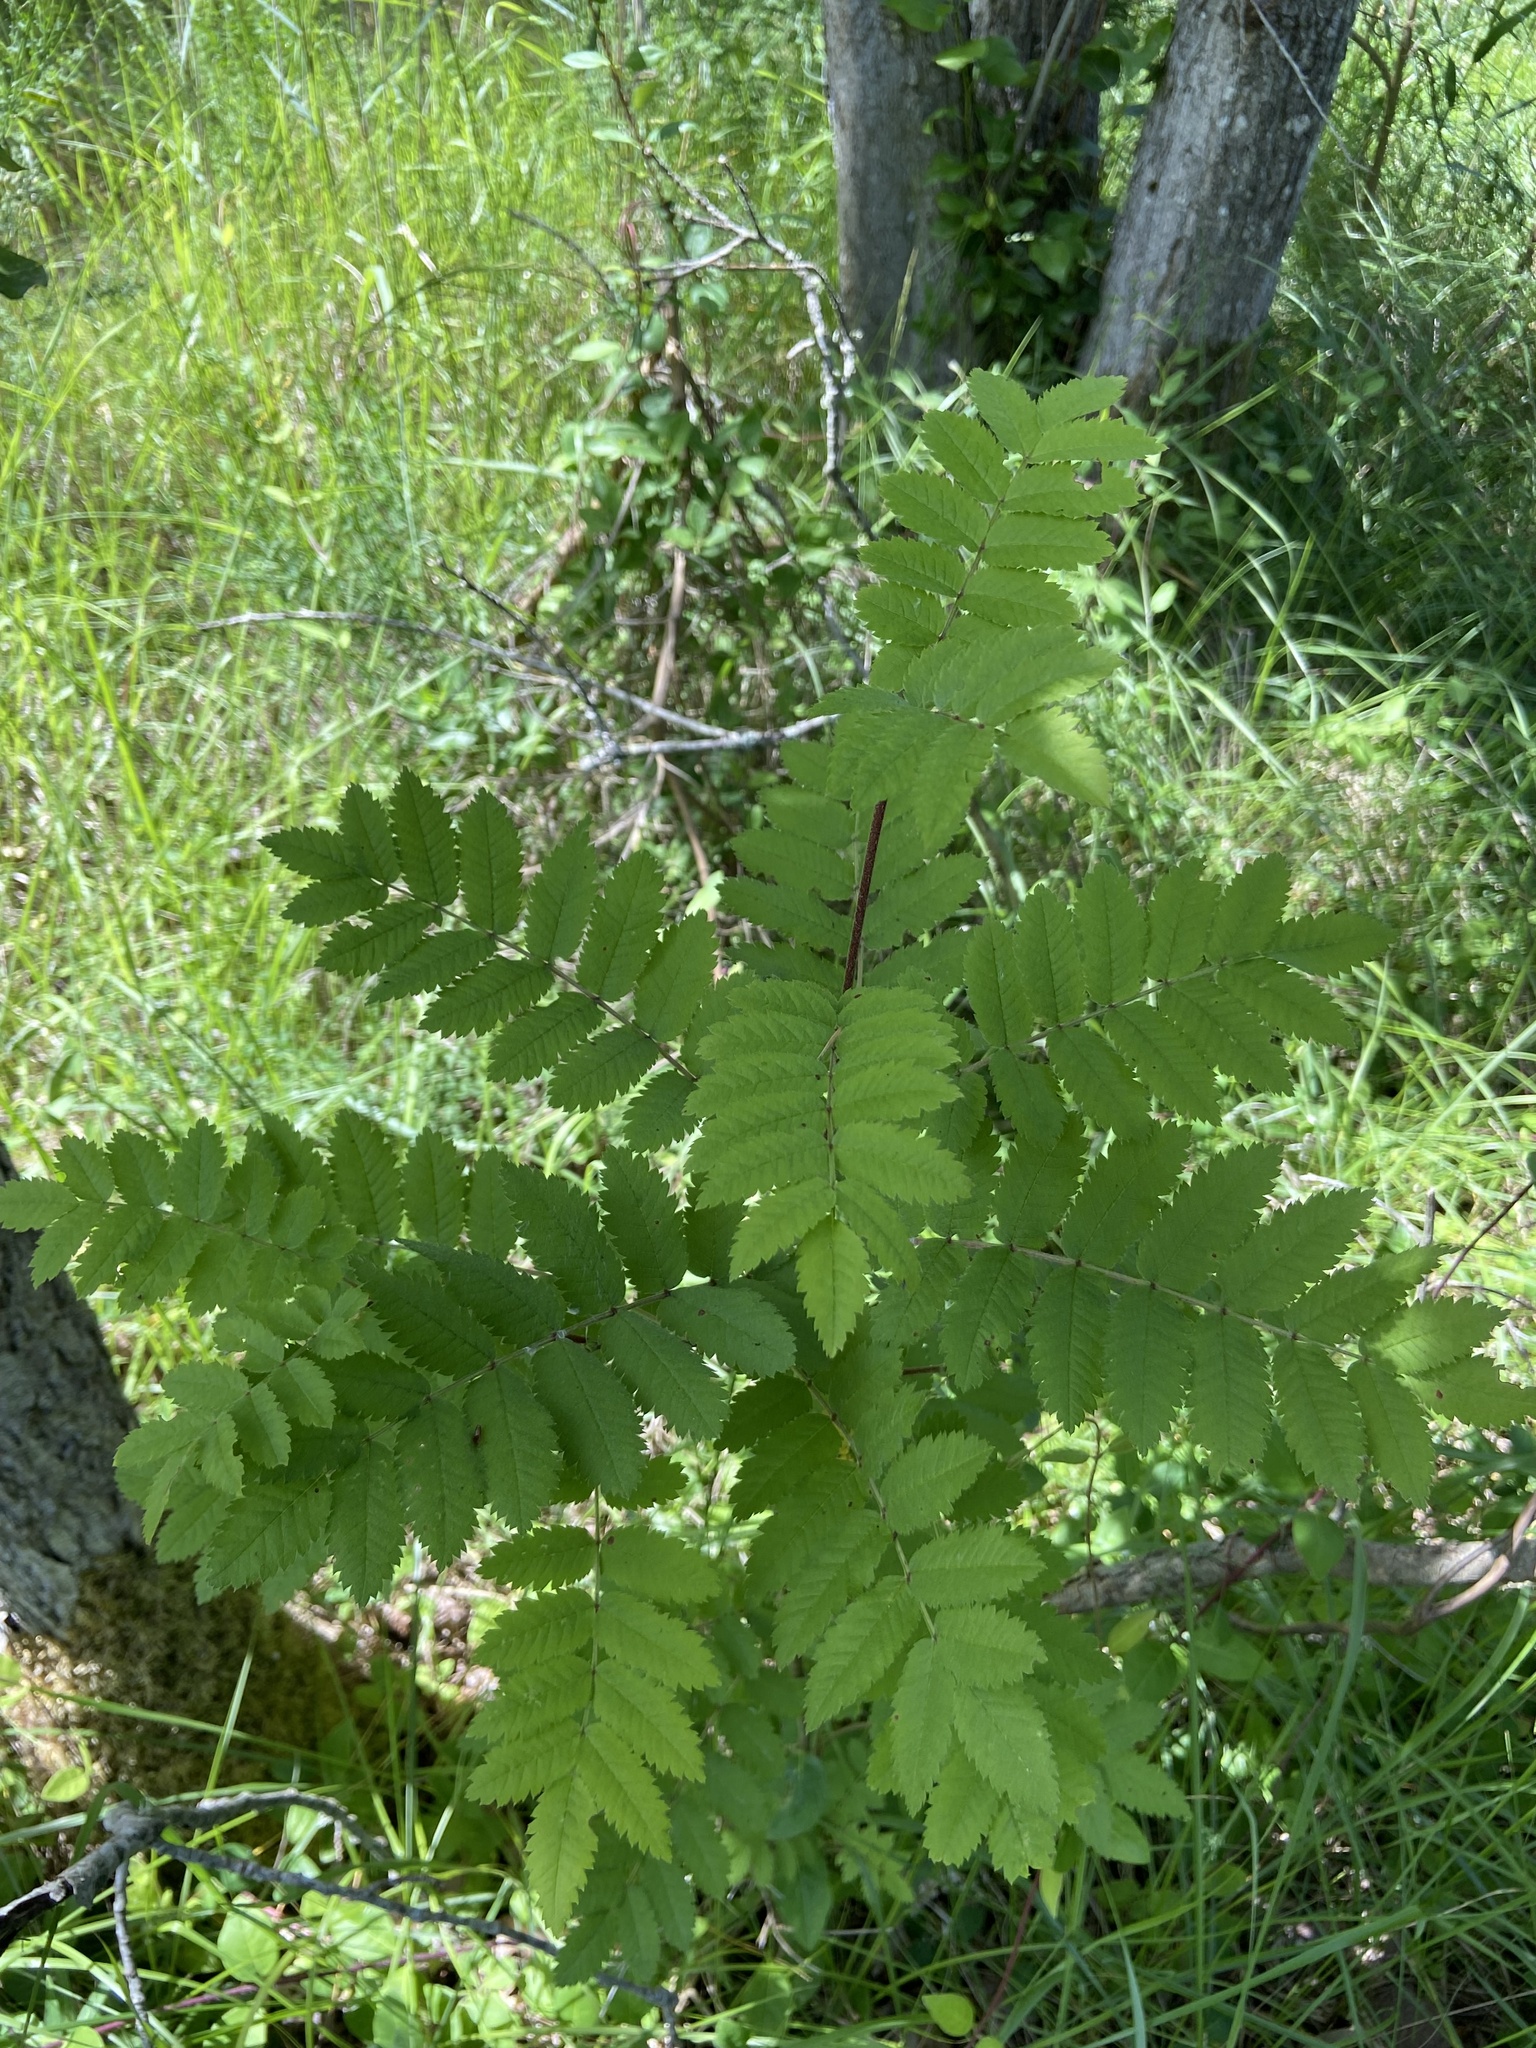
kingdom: Plantae
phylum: Tracheophyta
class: Magnoliopsida
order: Rosales
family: Rosaceae
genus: Sorbus
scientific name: Sorbus aucuparia
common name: Rowan
